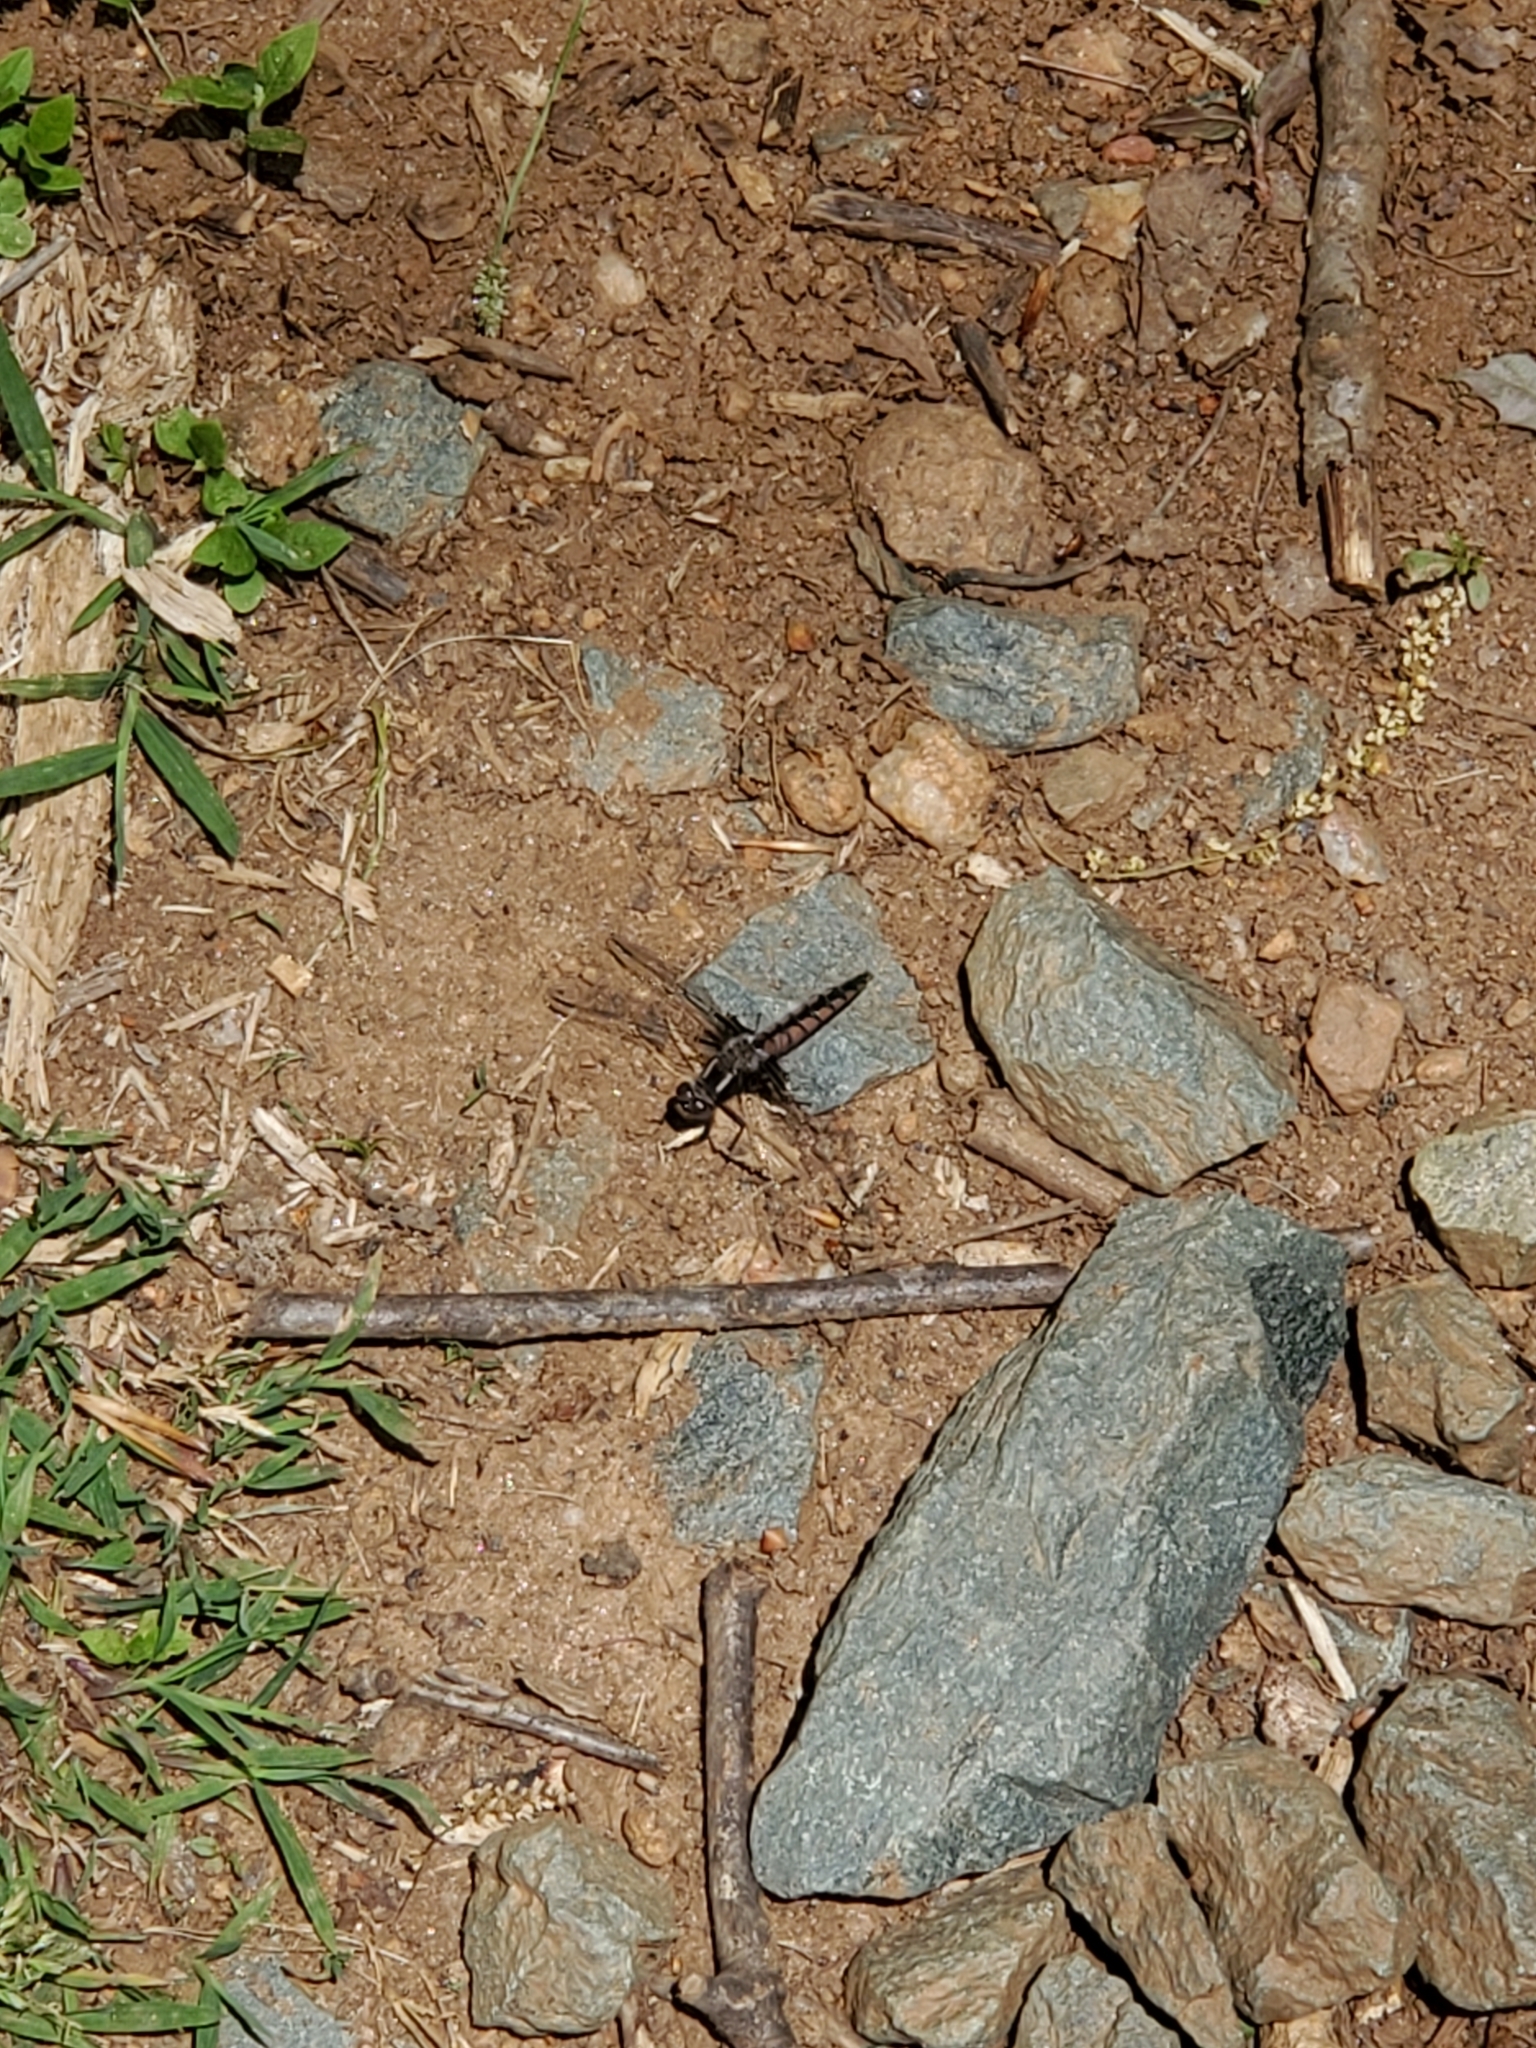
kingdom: Animalia
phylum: Arthropoda
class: Insecta
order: Odonata
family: Libellulidae
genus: Ladona
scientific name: Ladona deplanata
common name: Blue corporal
